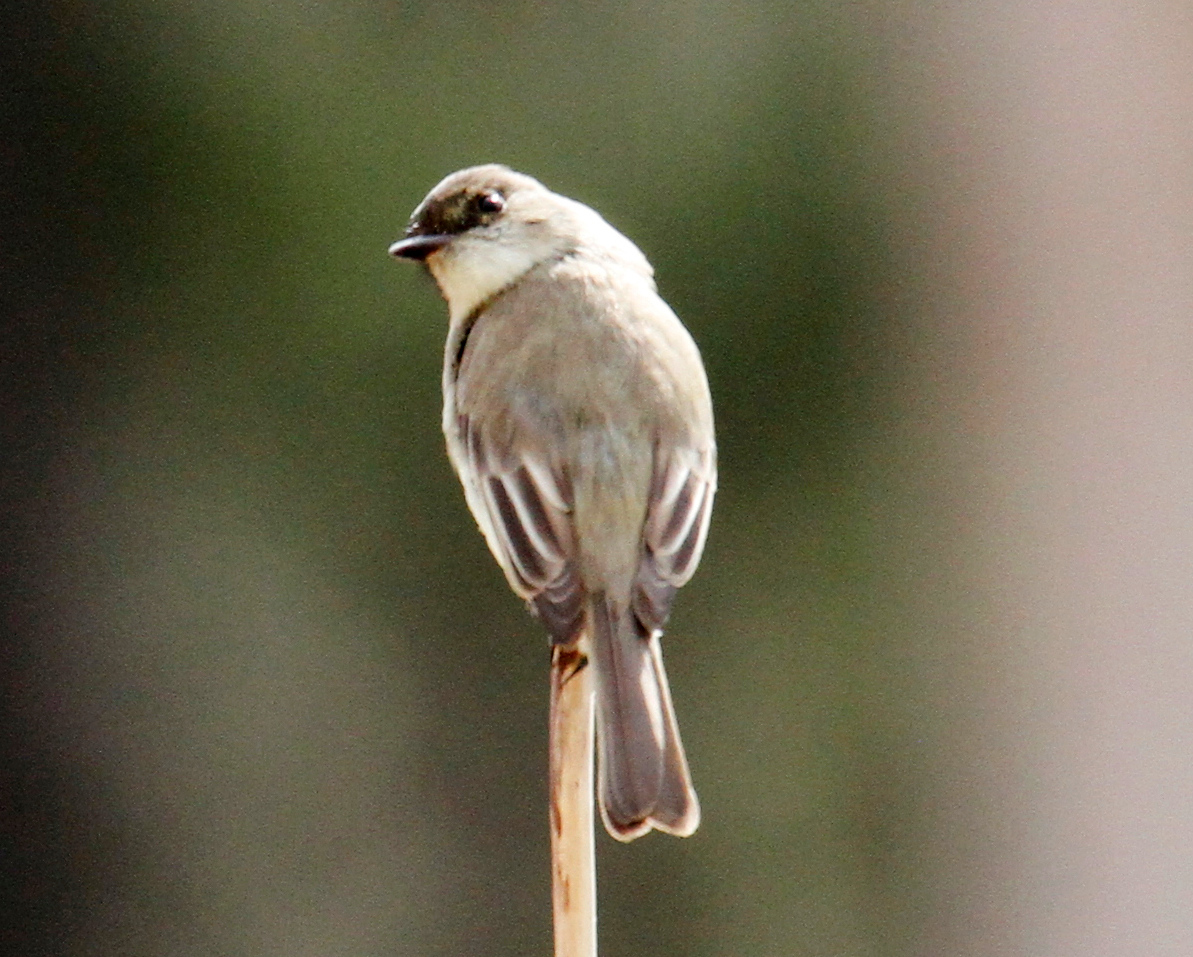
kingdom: Animalia
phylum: Chordata
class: Aves
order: Passeriformes
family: Tyrannidae
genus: Sayornis
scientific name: Sayornis phoebe
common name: Eastern phoebe
